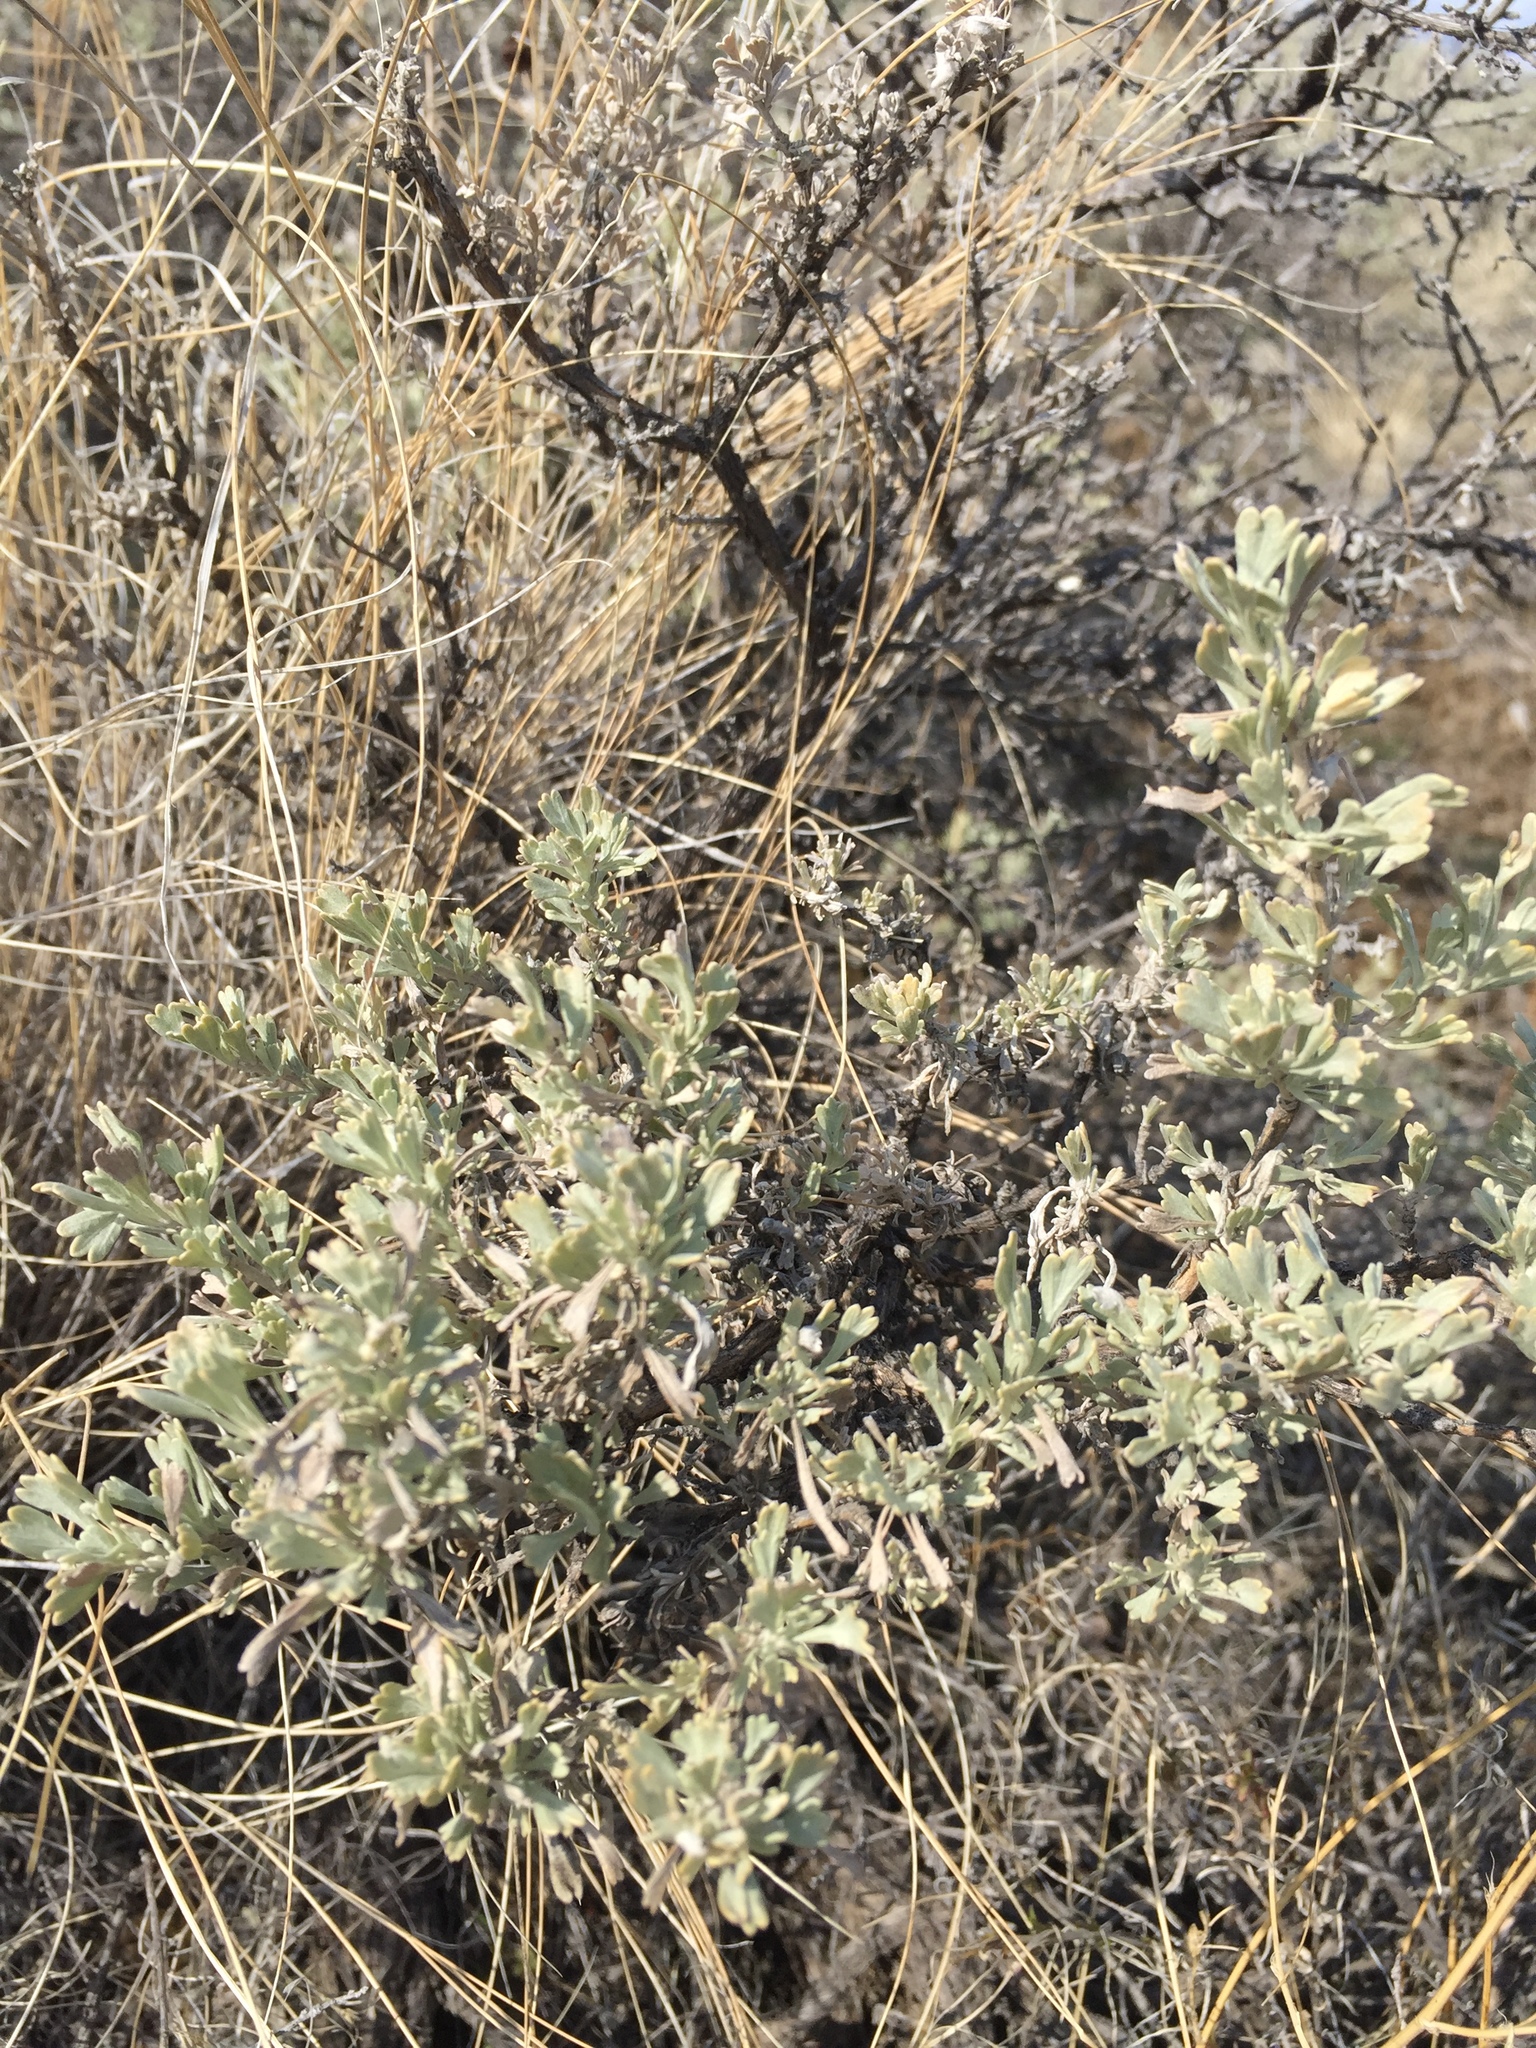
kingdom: Plantae
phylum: Tracheophyta
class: Magnoliopsida
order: Asterales
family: Asteraceae
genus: Artemisia
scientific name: Artemisia tridentata
